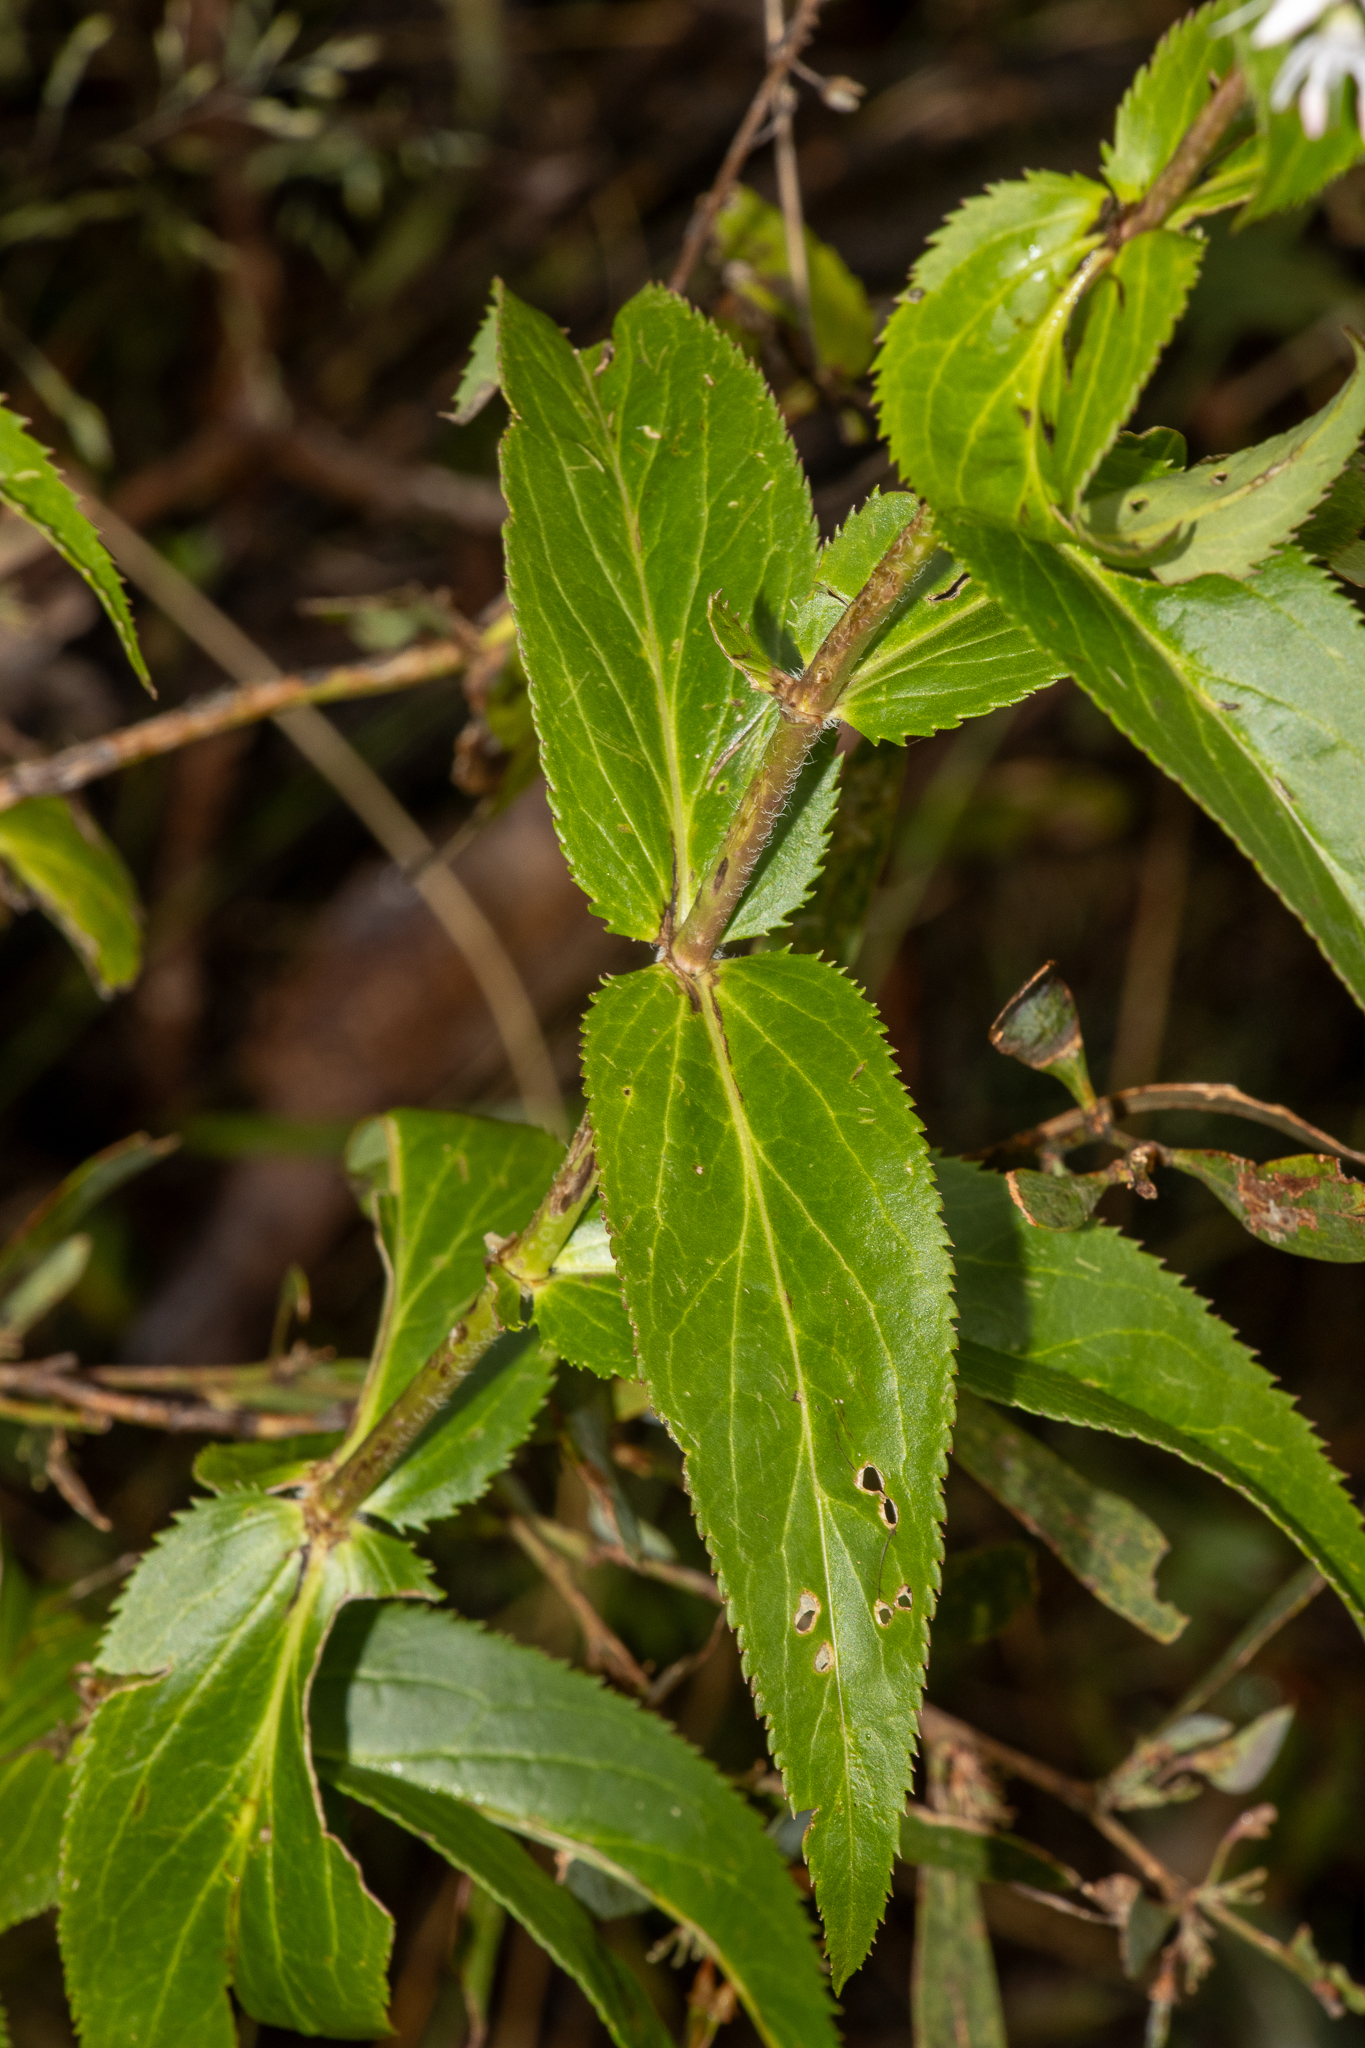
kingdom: Plantae
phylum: Tracheophyta
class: Magnoliopsida
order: Lamiales
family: Plantaginaceae
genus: Veronica
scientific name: Veronica derwentiana
